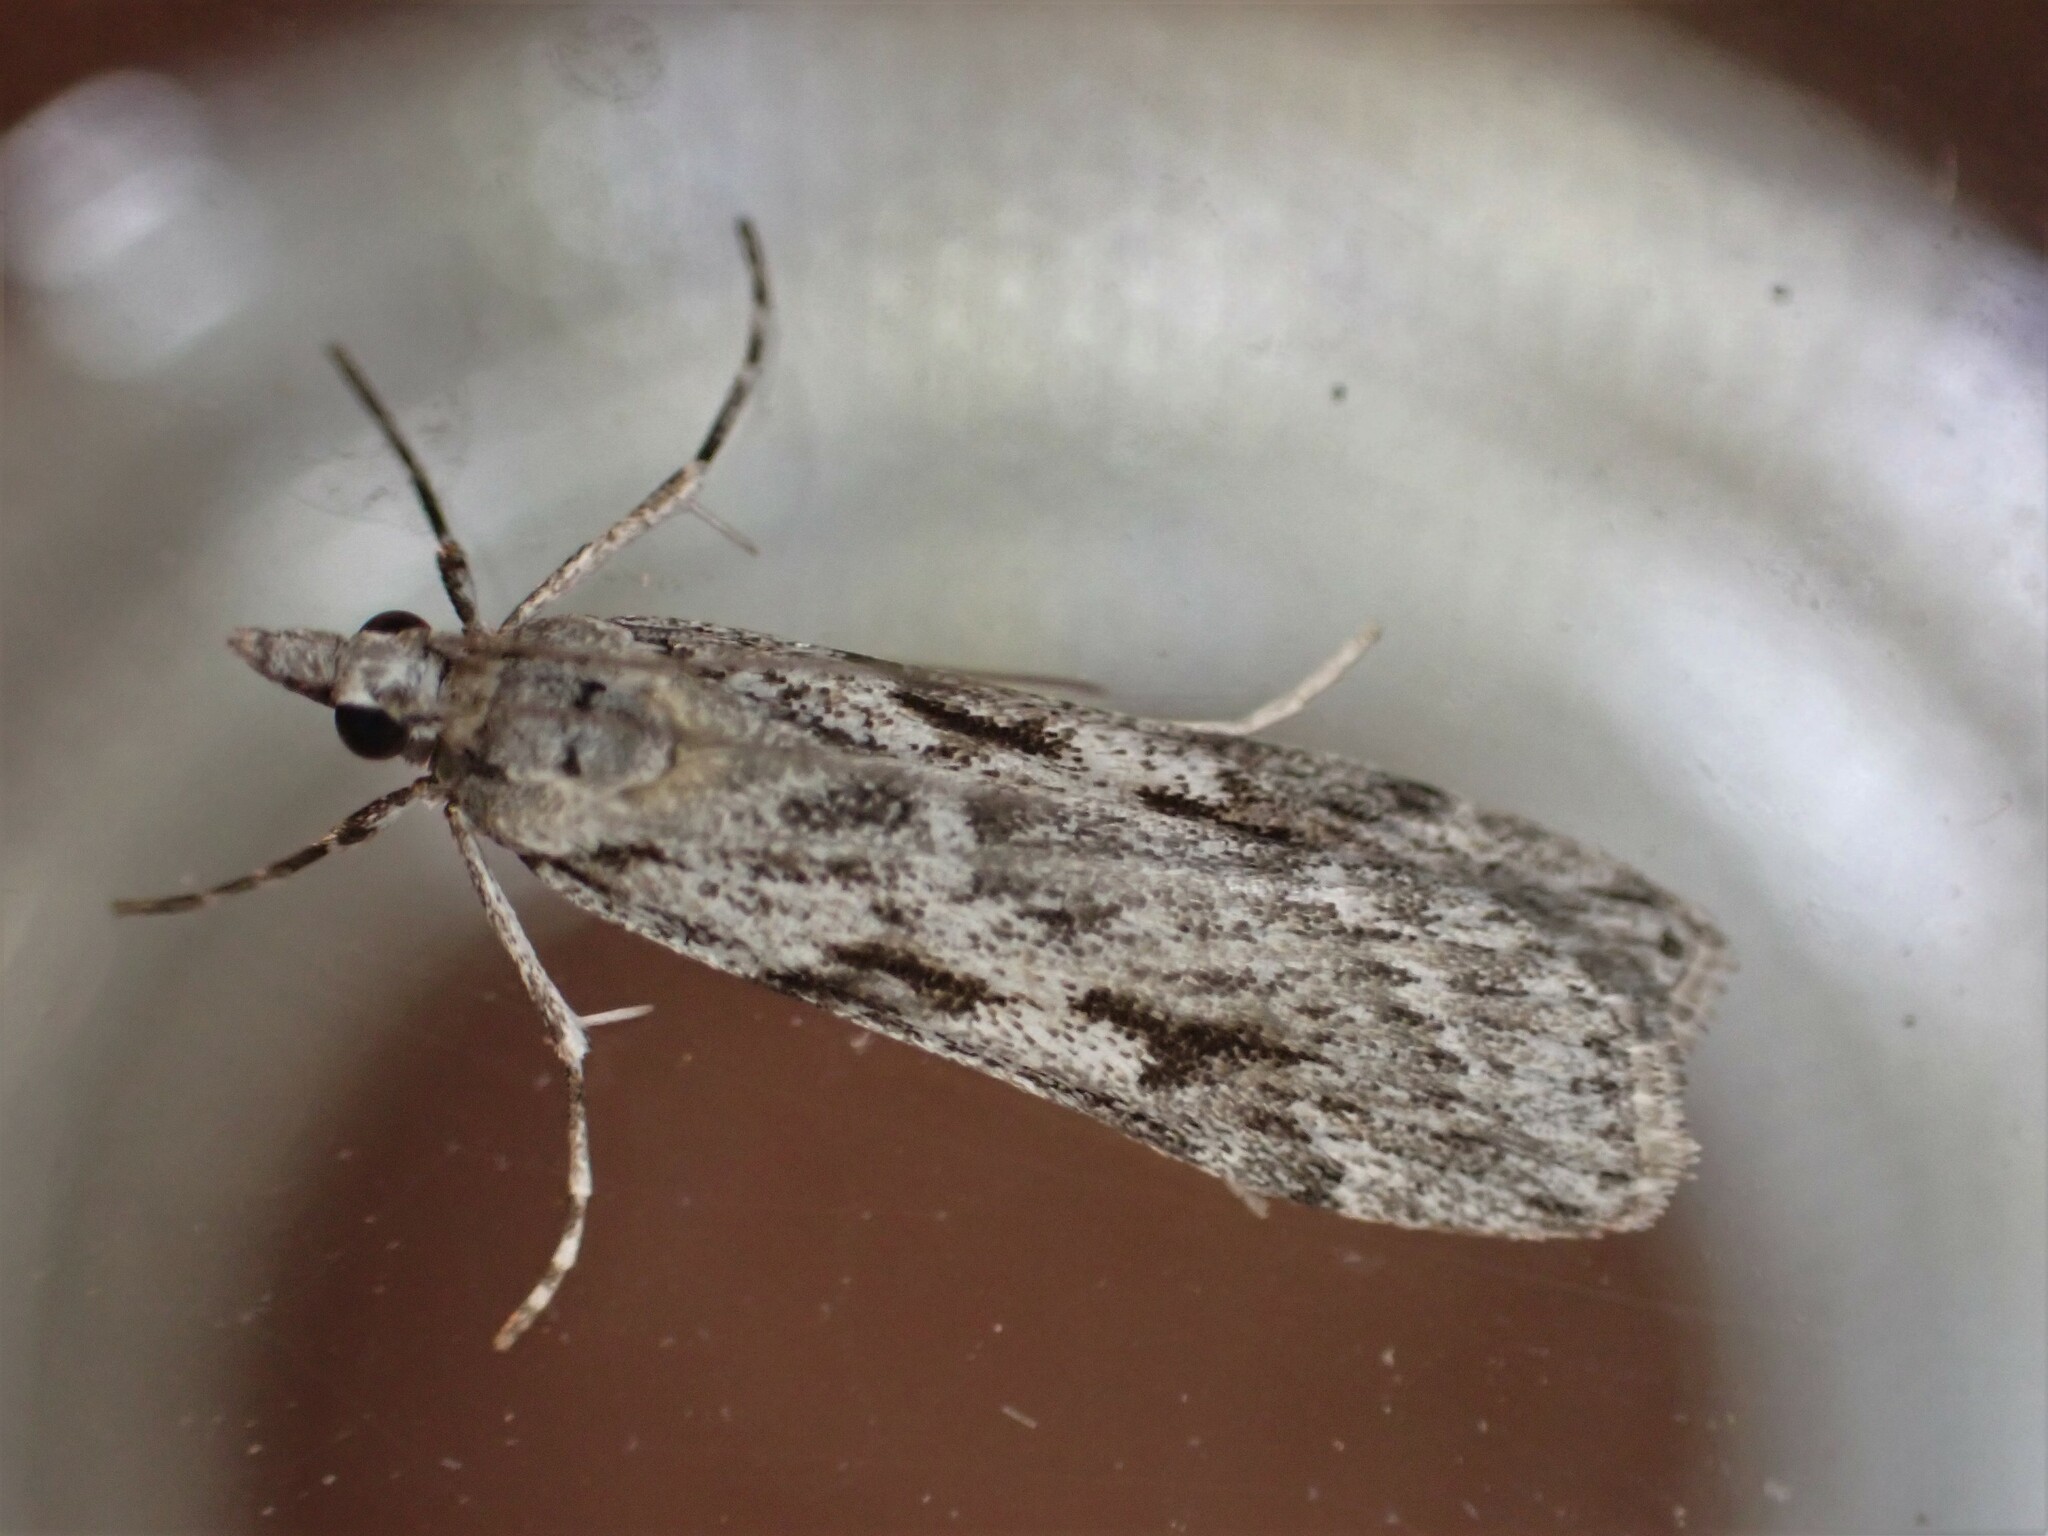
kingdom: Animalia
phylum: Arthropoda
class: Insecta
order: Lepidoptera
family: Crambidae
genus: Scoparia
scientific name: Scoparia halopis
